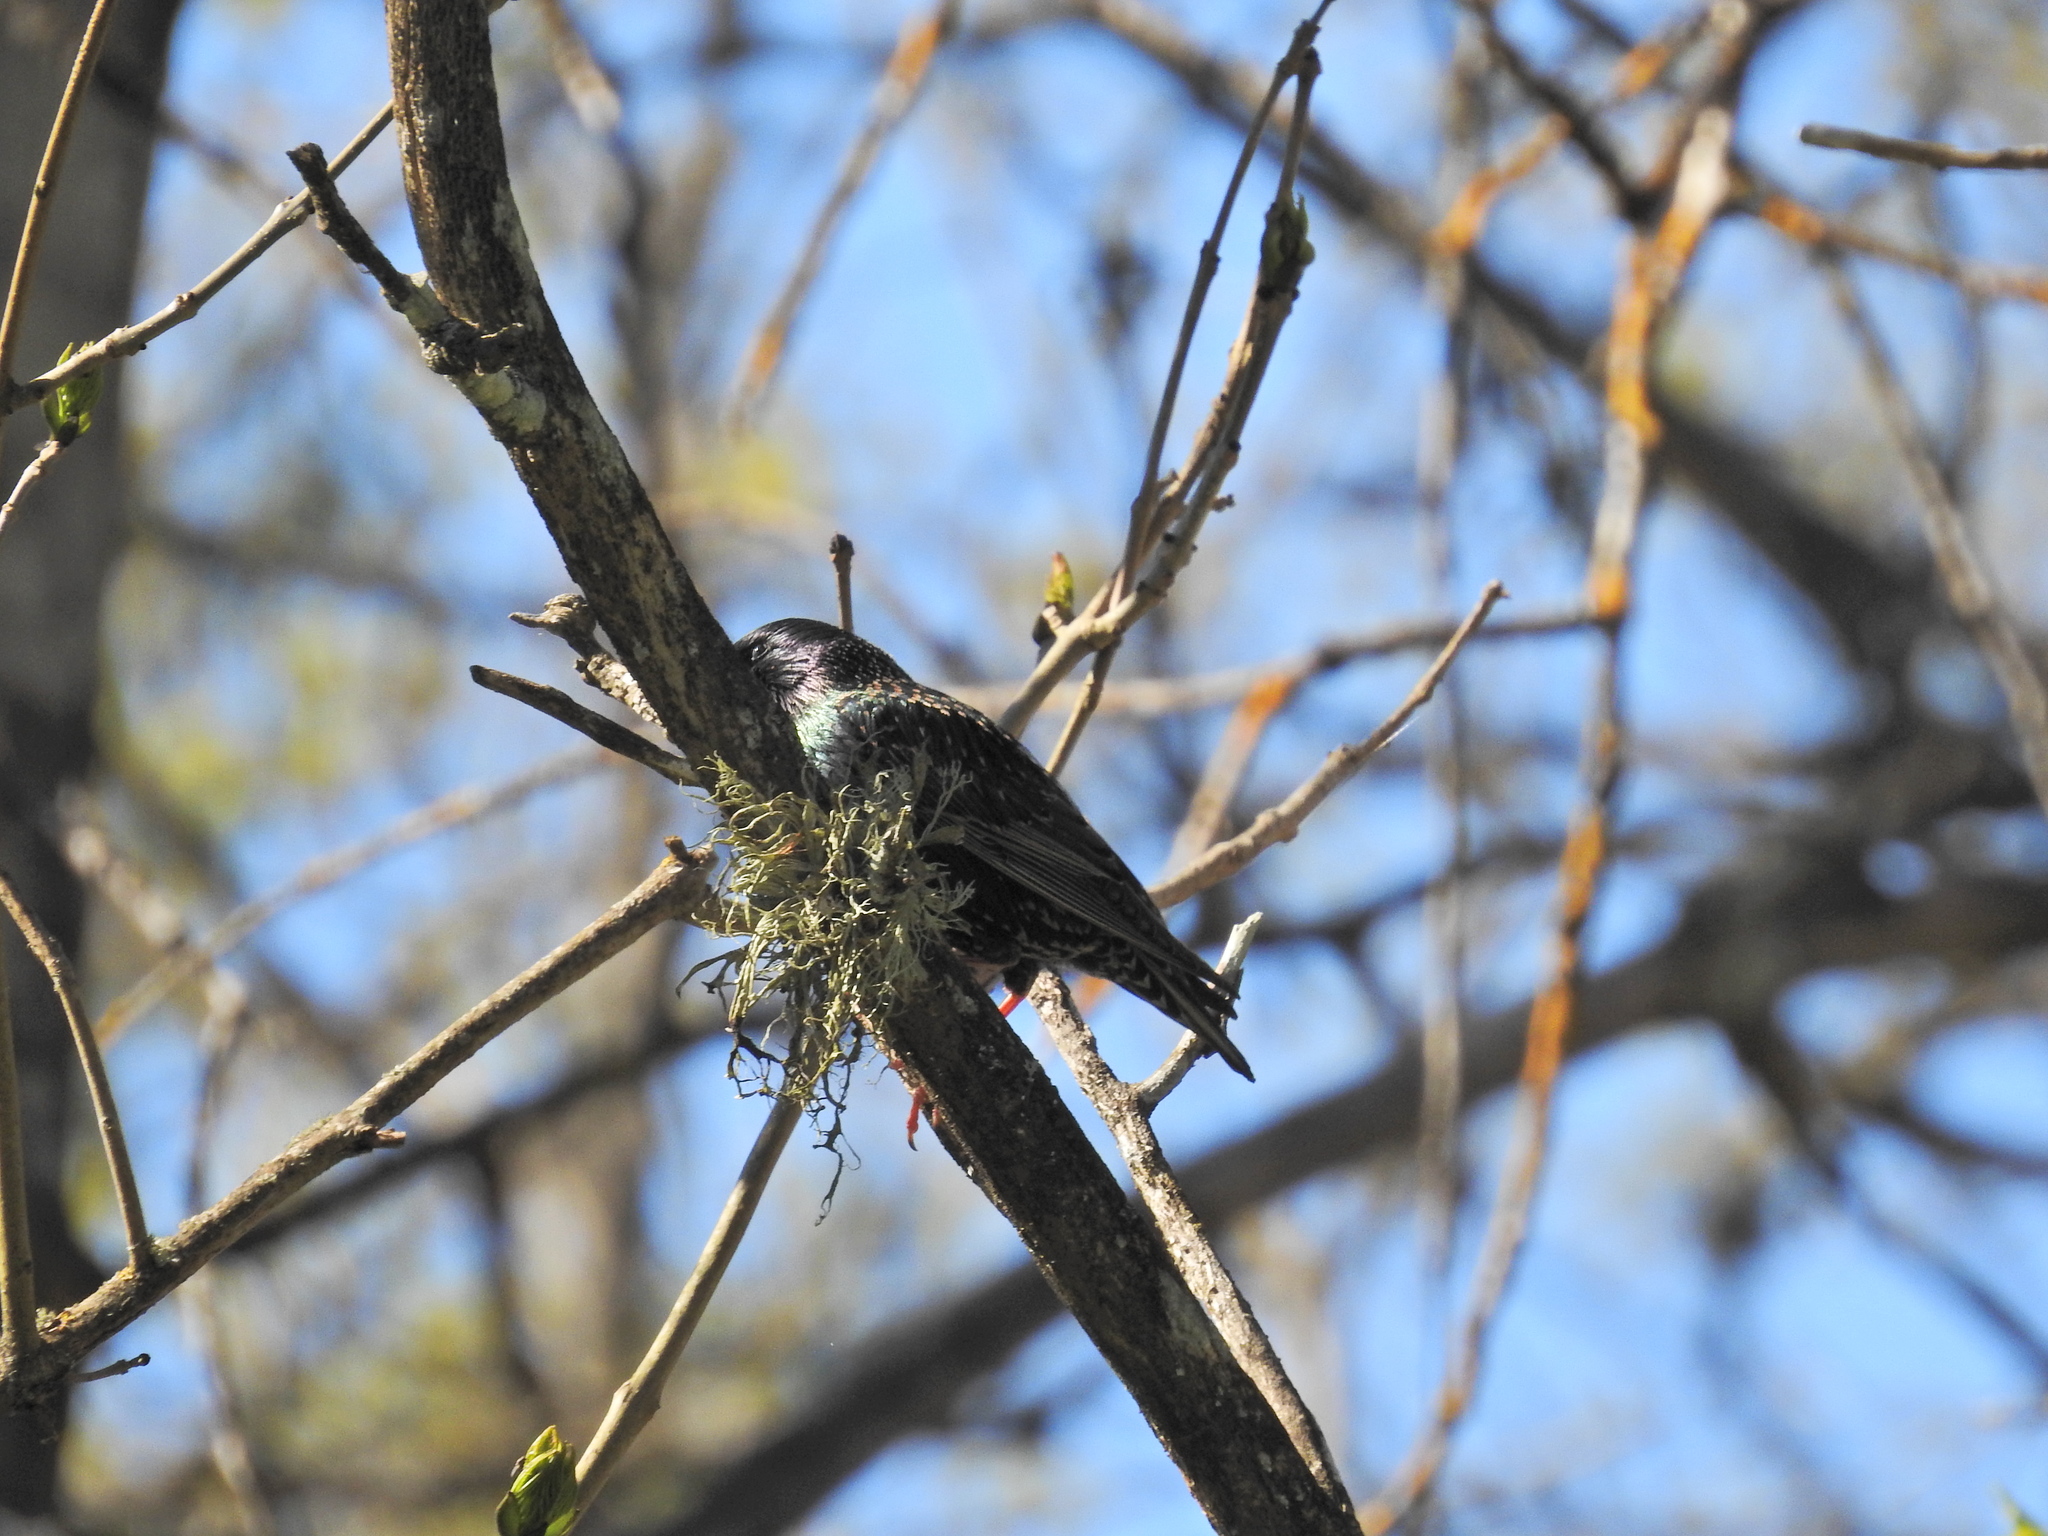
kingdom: Animalia
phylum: Chordata
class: Aves
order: Passeriformes
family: Sturnidae
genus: Sturnus
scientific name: Sturnus vulgaris
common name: Common starling
